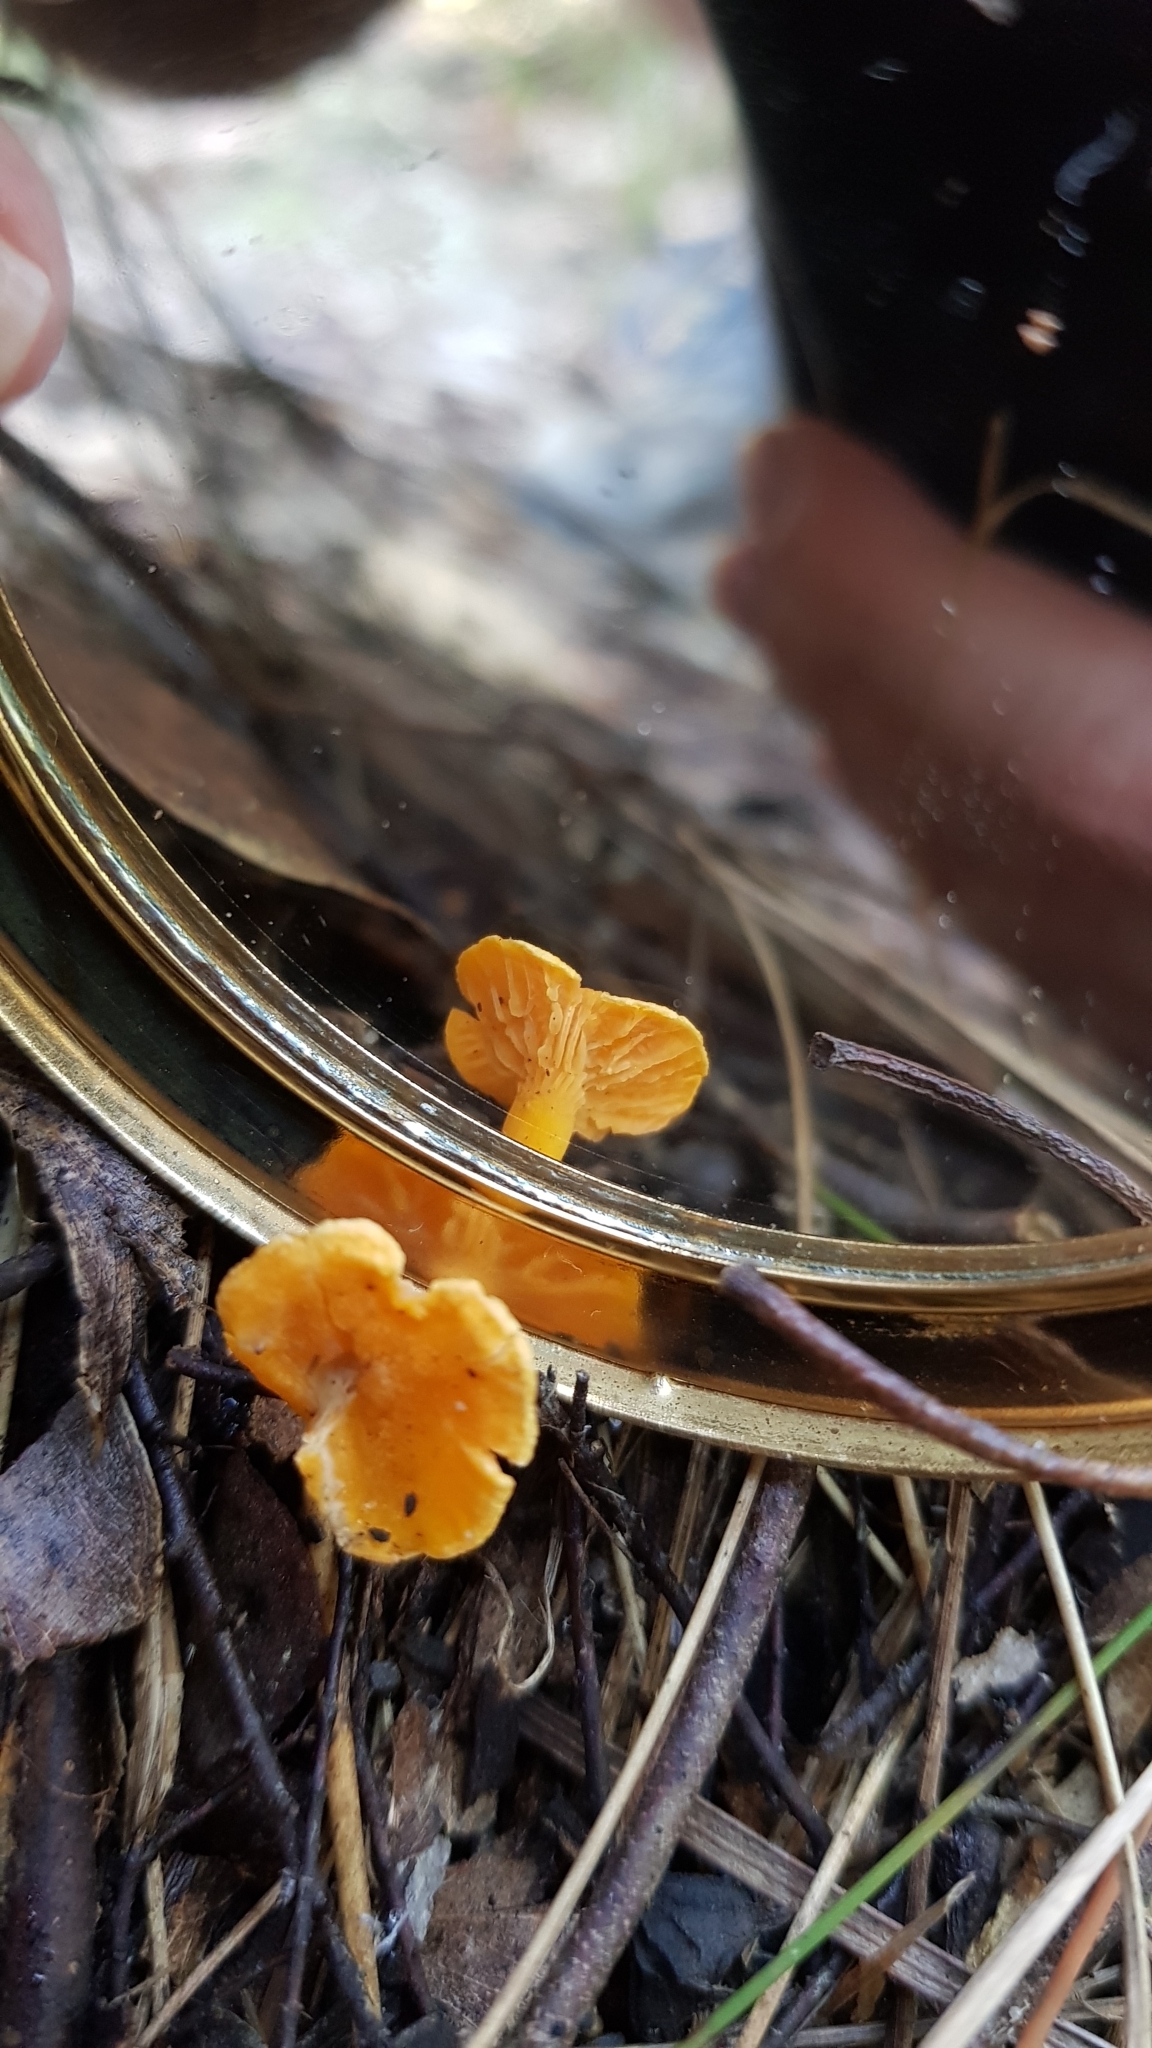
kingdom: Fungi
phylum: Basidiomycota
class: Agaricomycetes
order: Cantharellales
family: Hydnaceae
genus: Cantharellus
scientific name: Cantharellus
